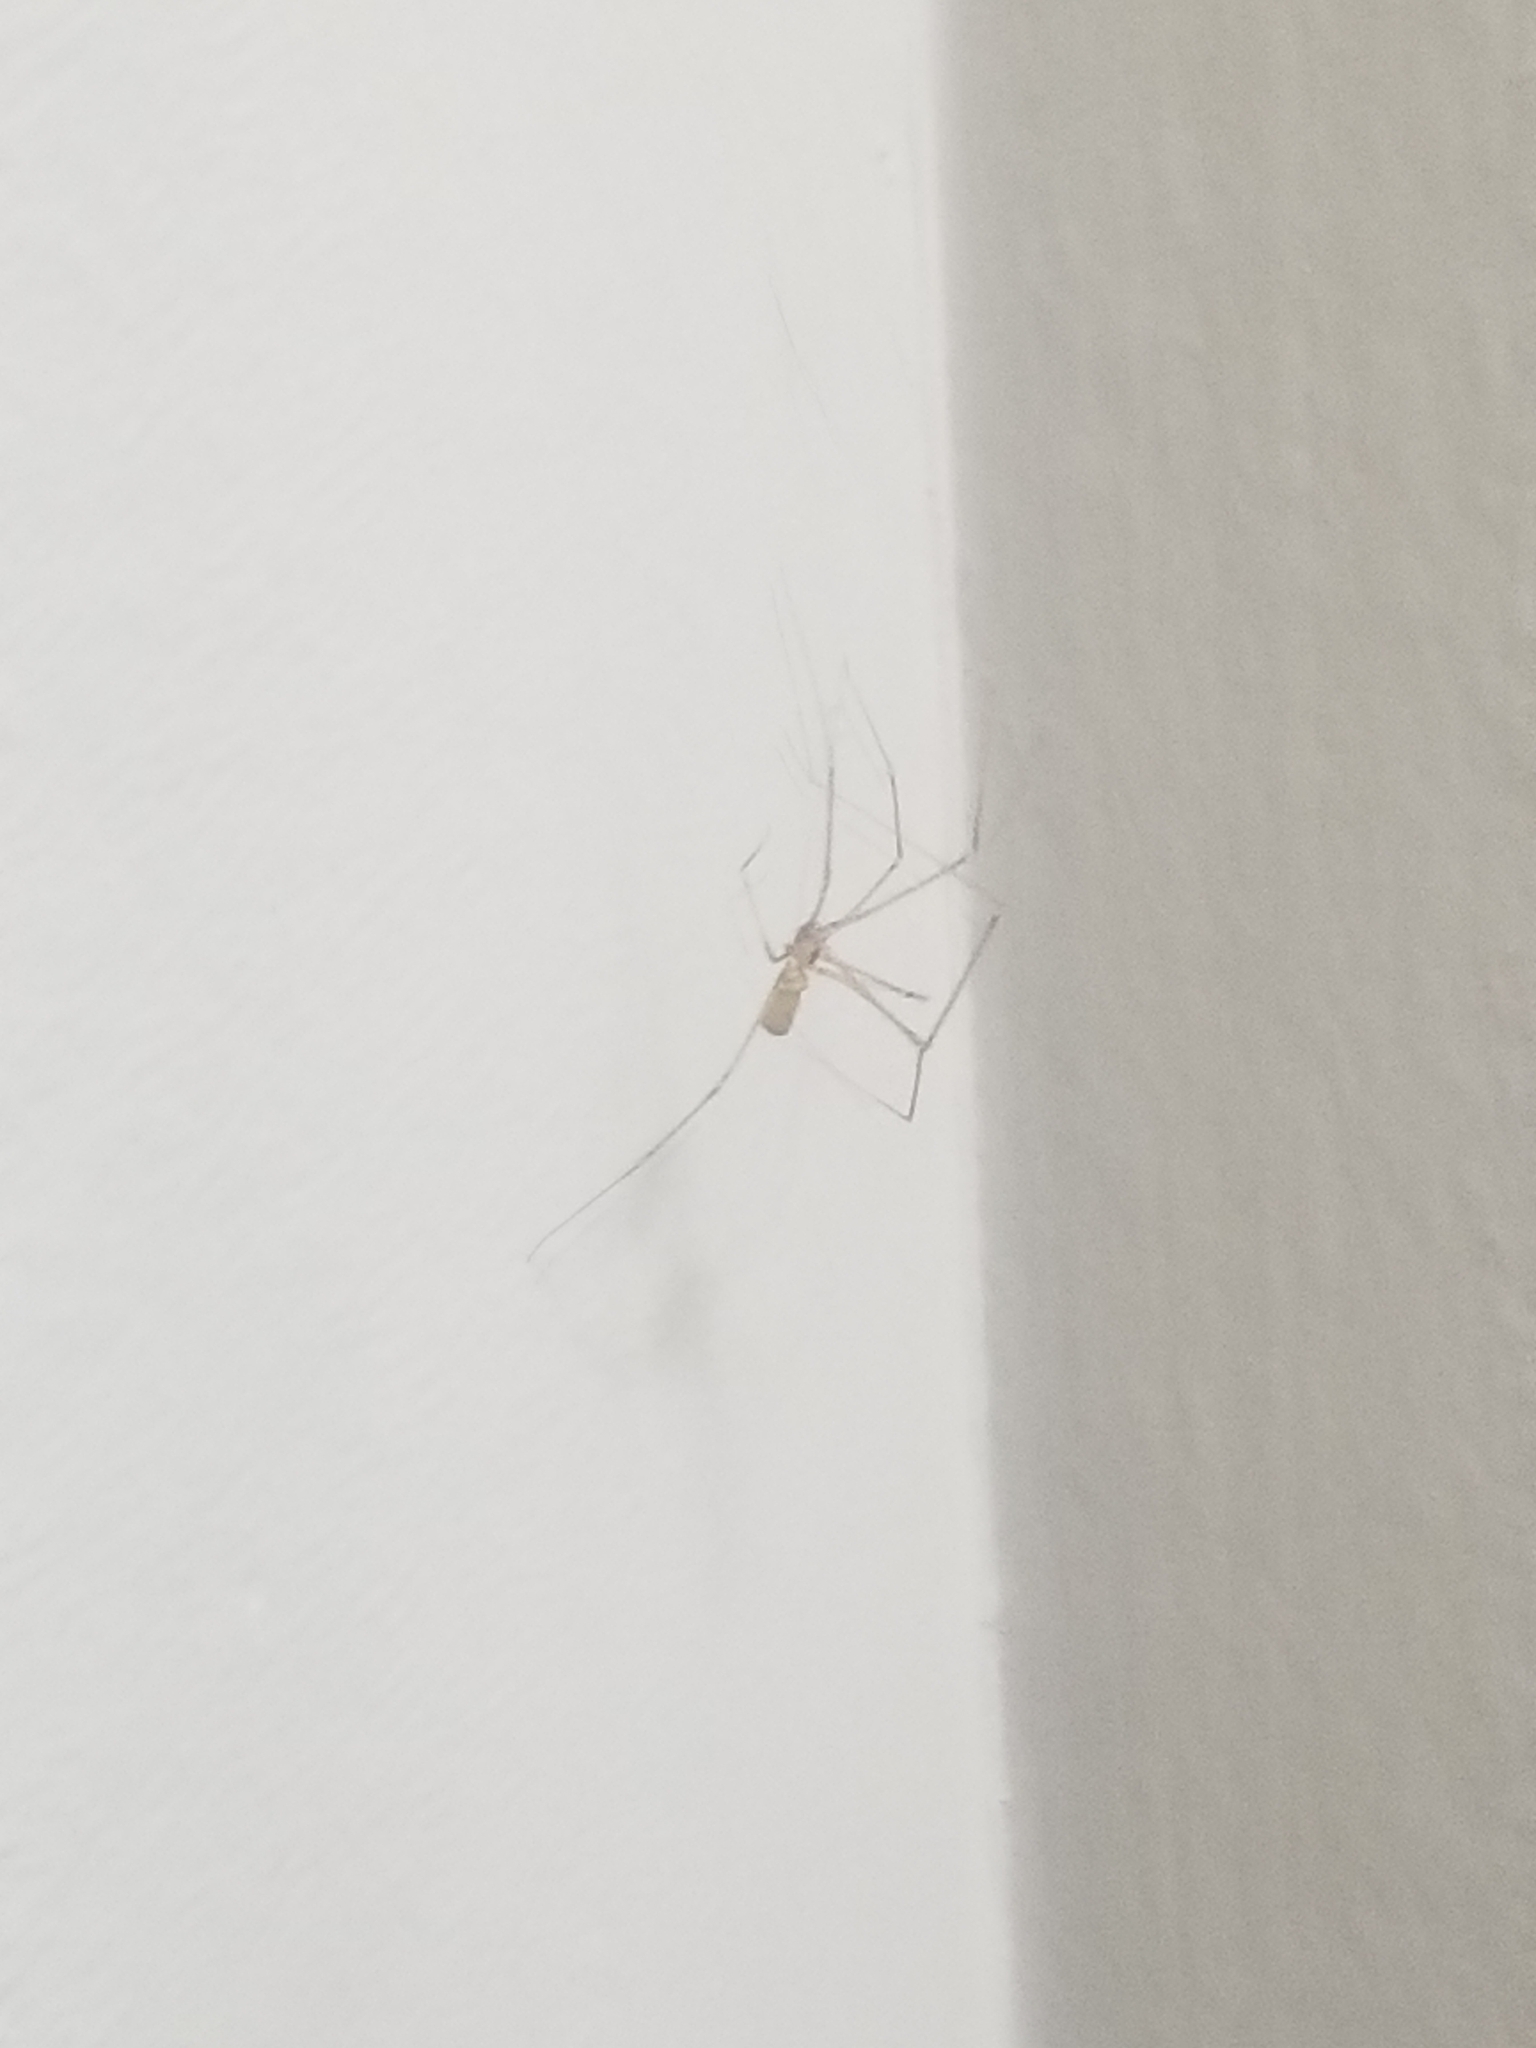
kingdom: Animalia
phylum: Arthropoda
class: Arachnida
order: Araneae
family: Pholcidae
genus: Pholcus
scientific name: Pholcus phalangioides
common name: Longbodied cellar spider
